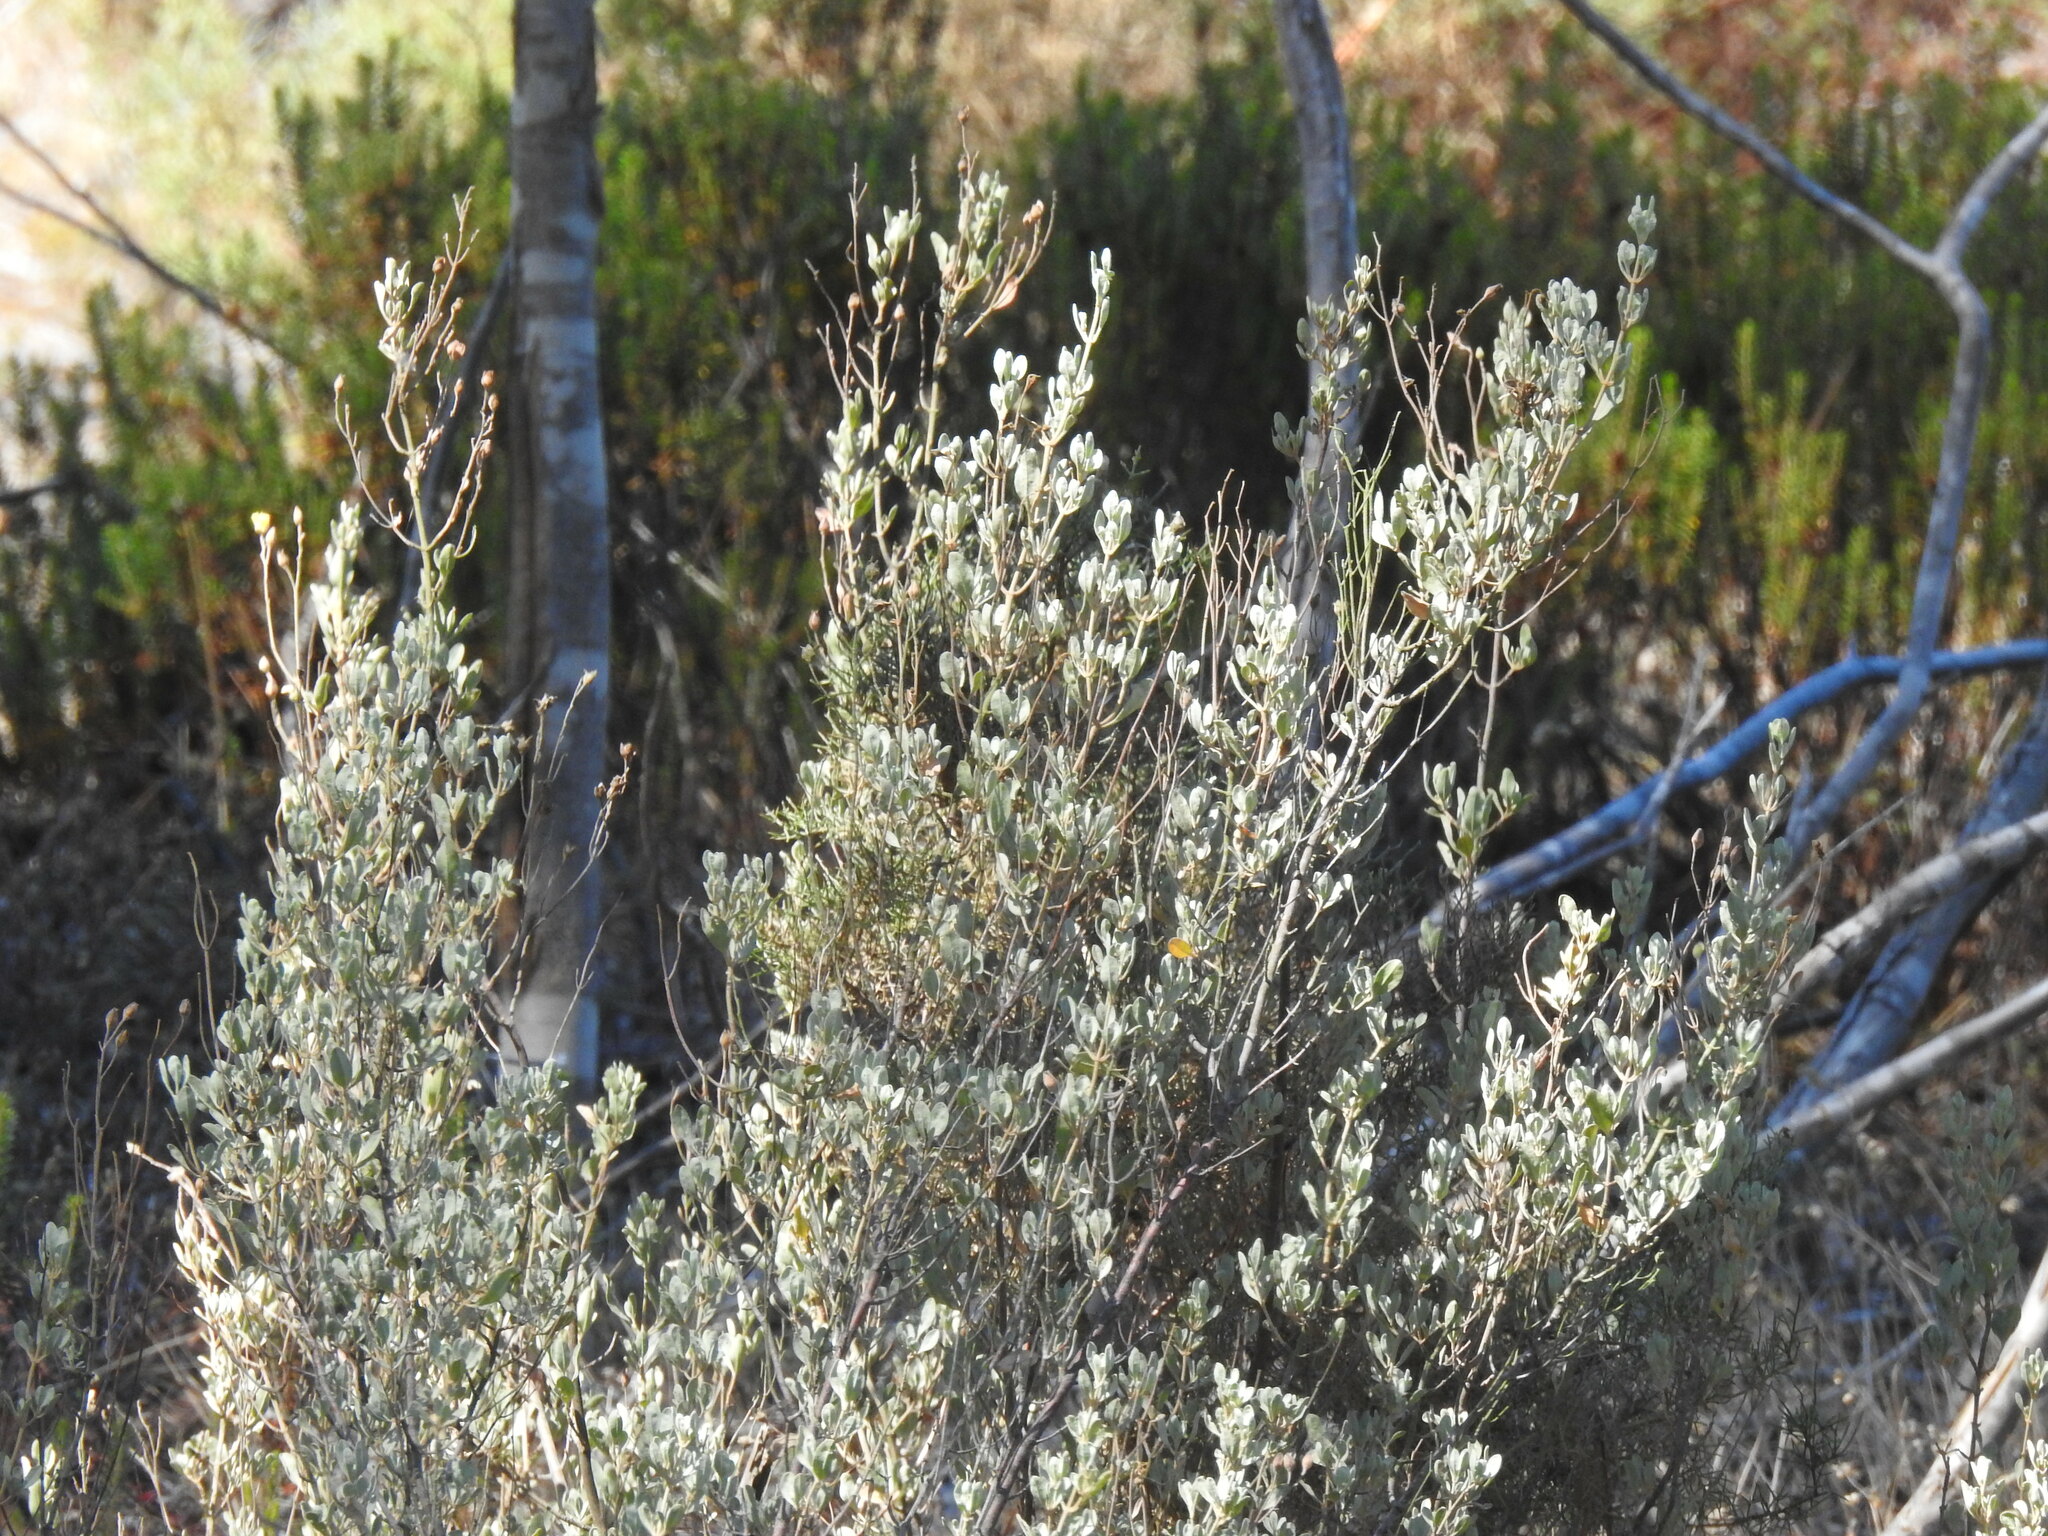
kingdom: Plantae
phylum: Tracheophyta
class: Magnoliopsida
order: Malvales
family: Cistaceae
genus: Halimium
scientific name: Halimium halimifolium
